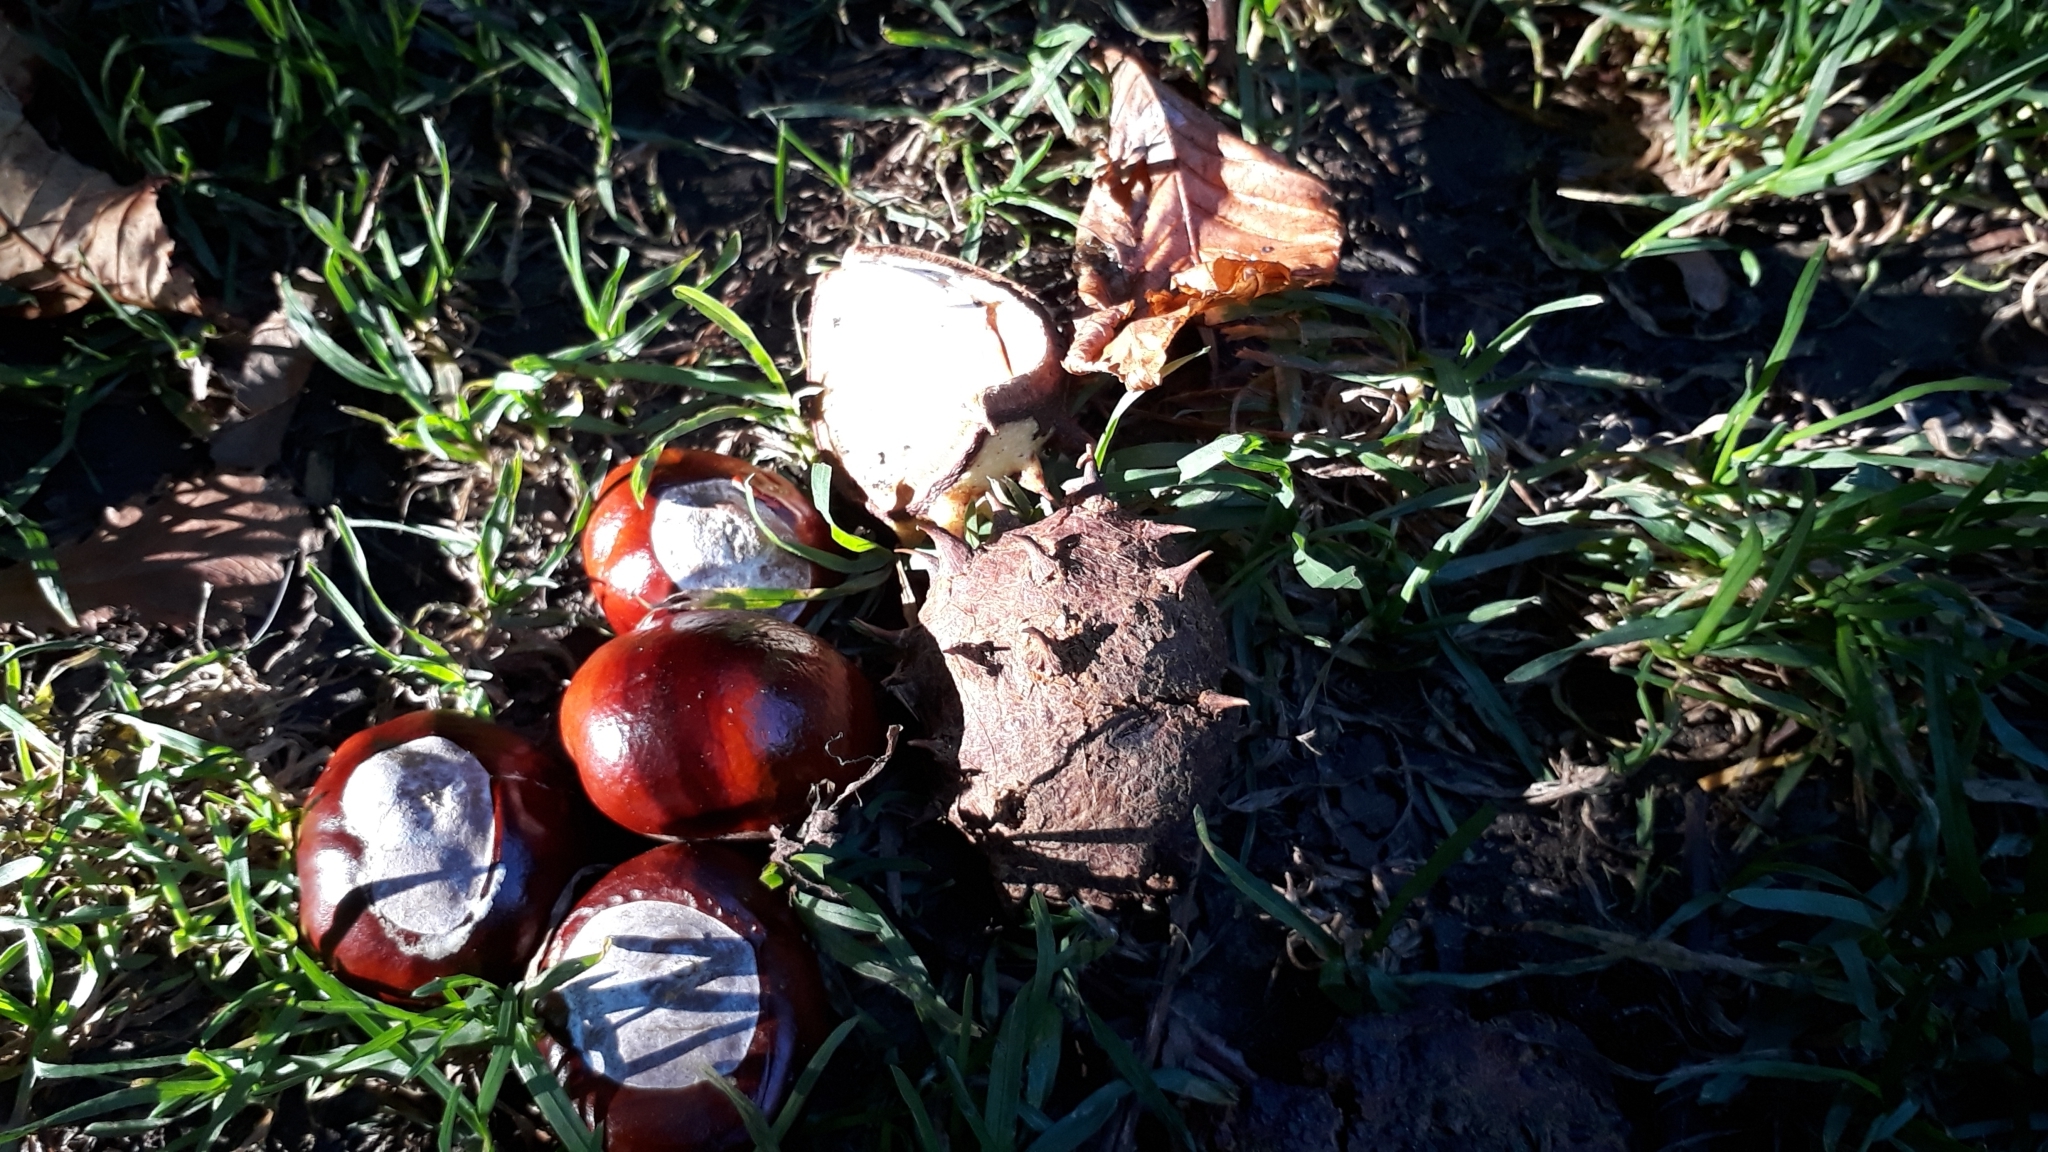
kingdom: Plantae
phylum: Tracheophyta
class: Magnoliopsida
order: Sapindales
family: Sapindaceae
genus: Aesculus
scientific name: Aesculus hippocastanum
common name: Horse-chestnut
